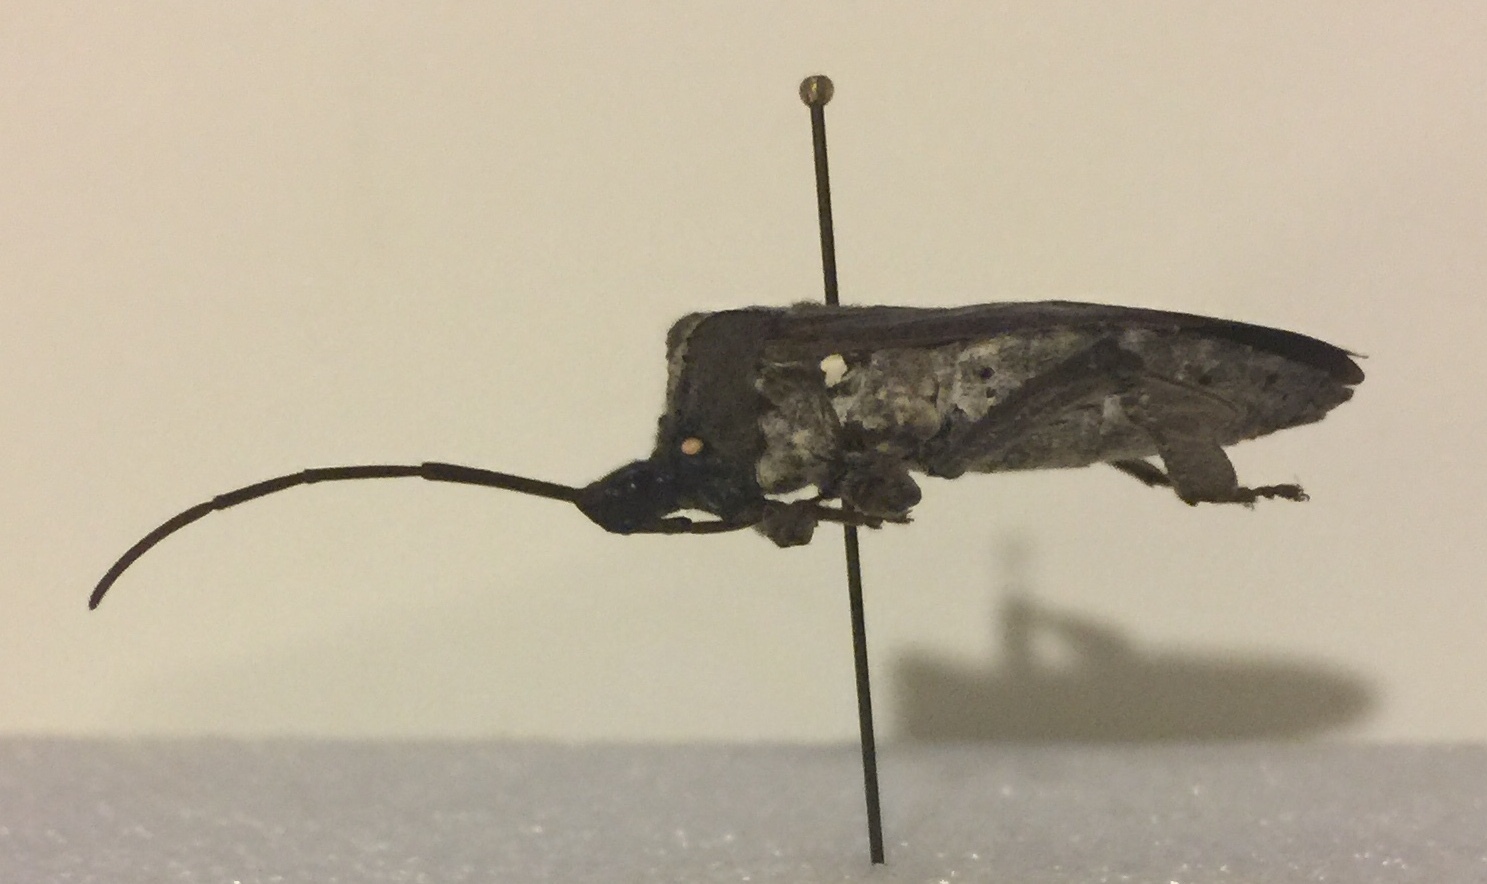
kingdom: Animalia
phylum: Arthropoda
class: Insecta
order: Hemiptera
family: Coreidae
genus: Acanthocephala
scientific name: Acanthocephala declivis
